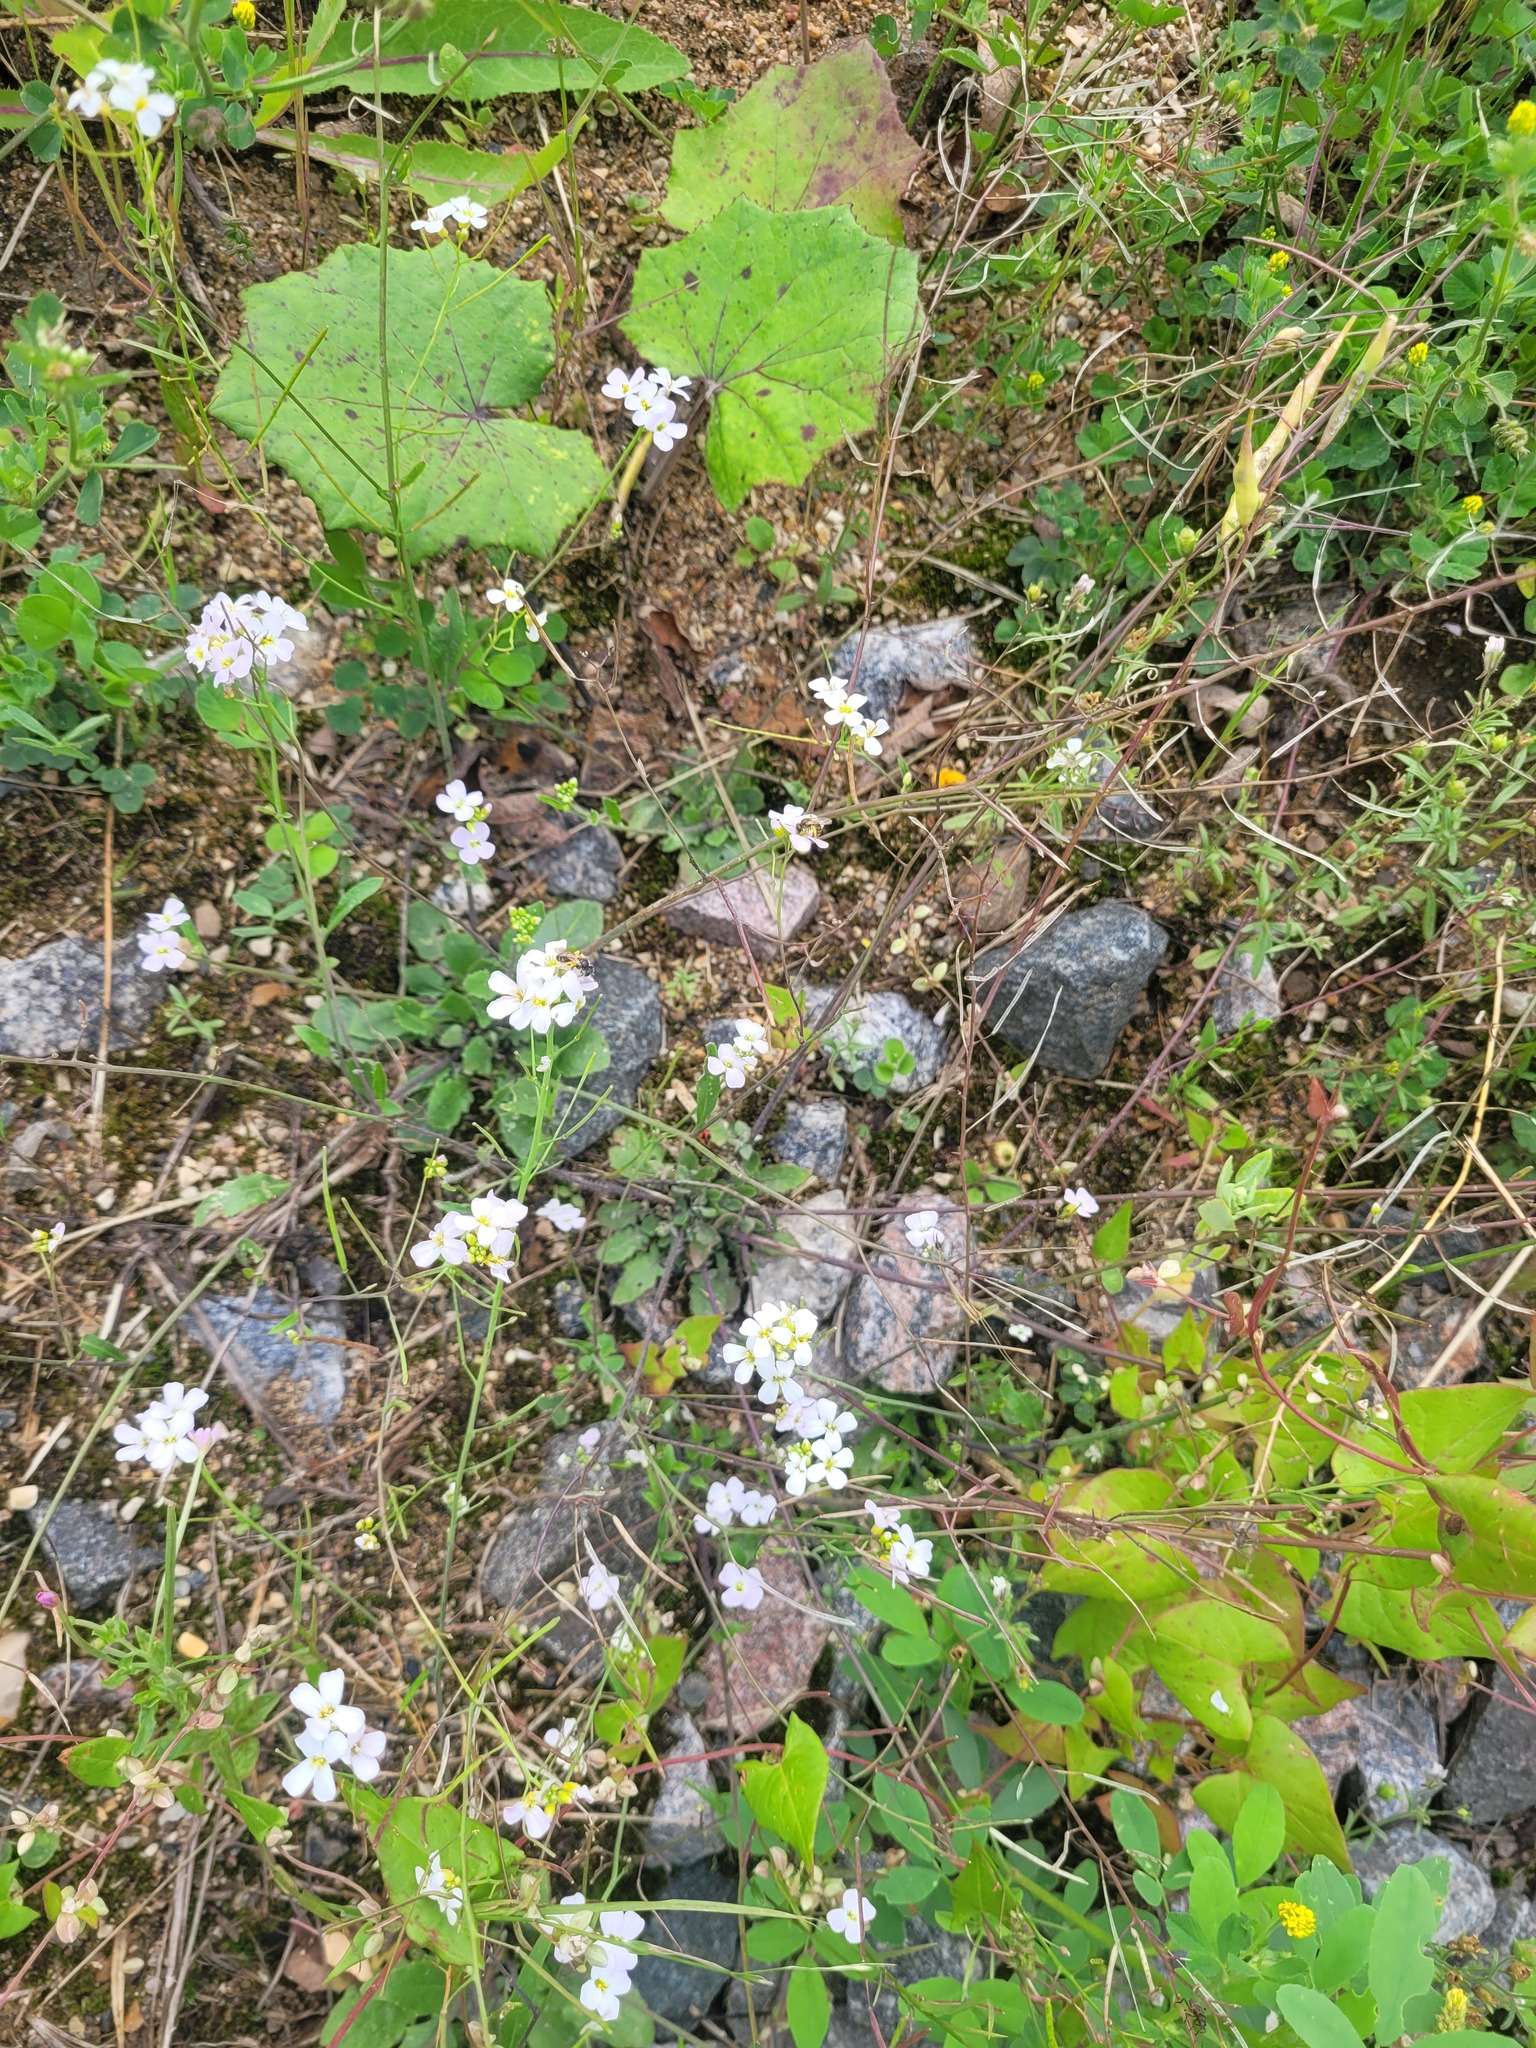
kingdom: Plantae
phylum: Tracheophyta
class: Magnoliopsida
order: Brassicales
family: Brassicaceae
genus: Arabidopsis
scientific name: Arabidopsis arenosa
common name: Sand rock-cress
